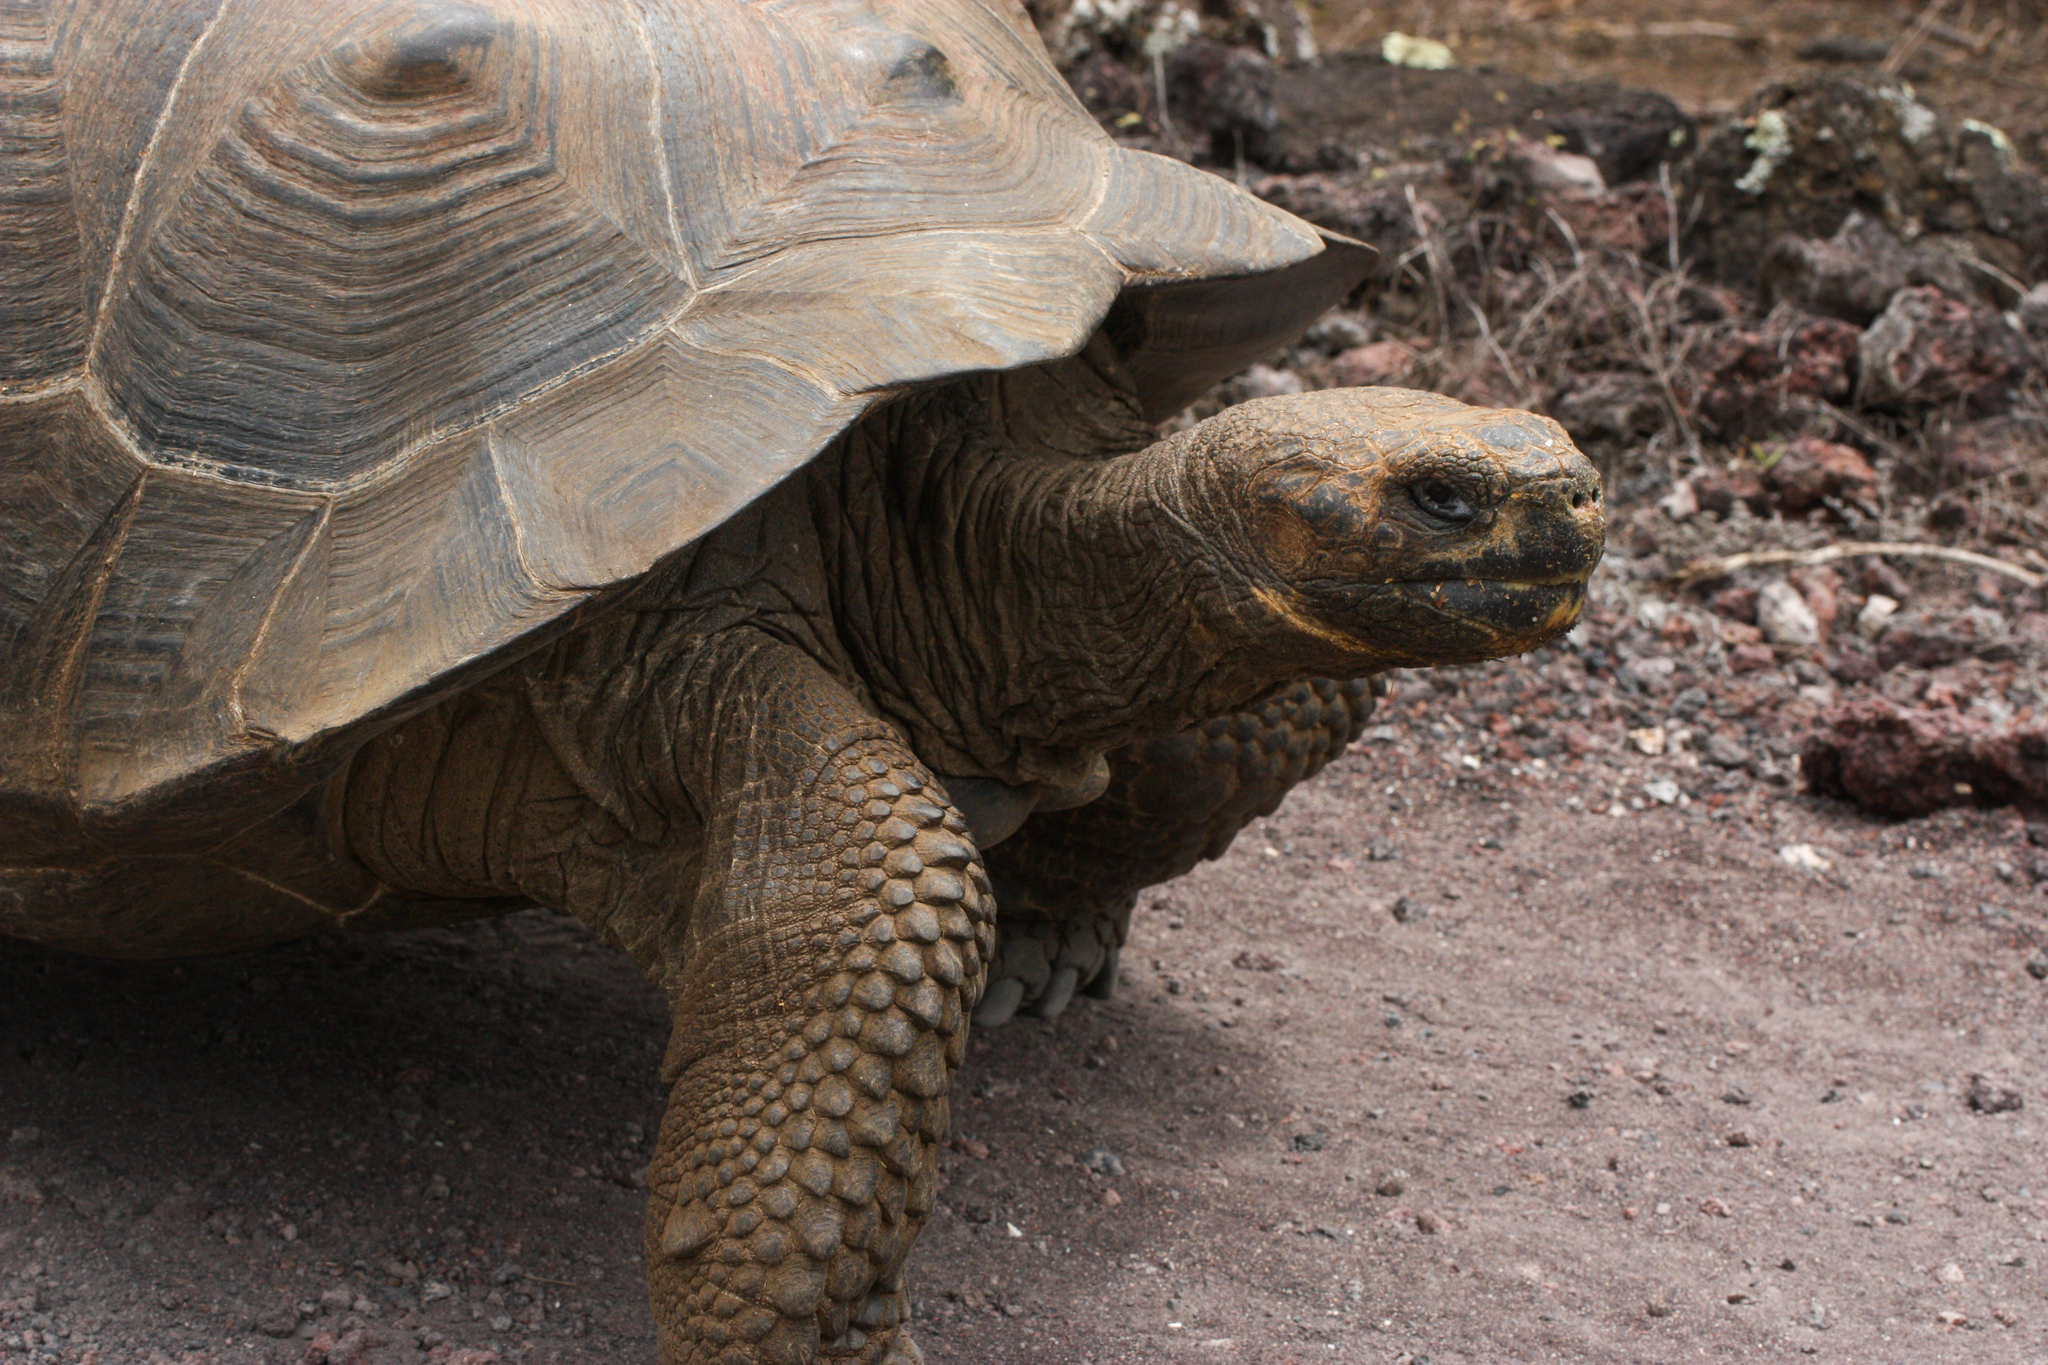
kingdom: Animalia
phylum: Chordata
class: Testudines
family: Testudinidae
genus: Chelonoidis
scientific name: Chelonoidis niger
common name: Charles island giant tortoise
